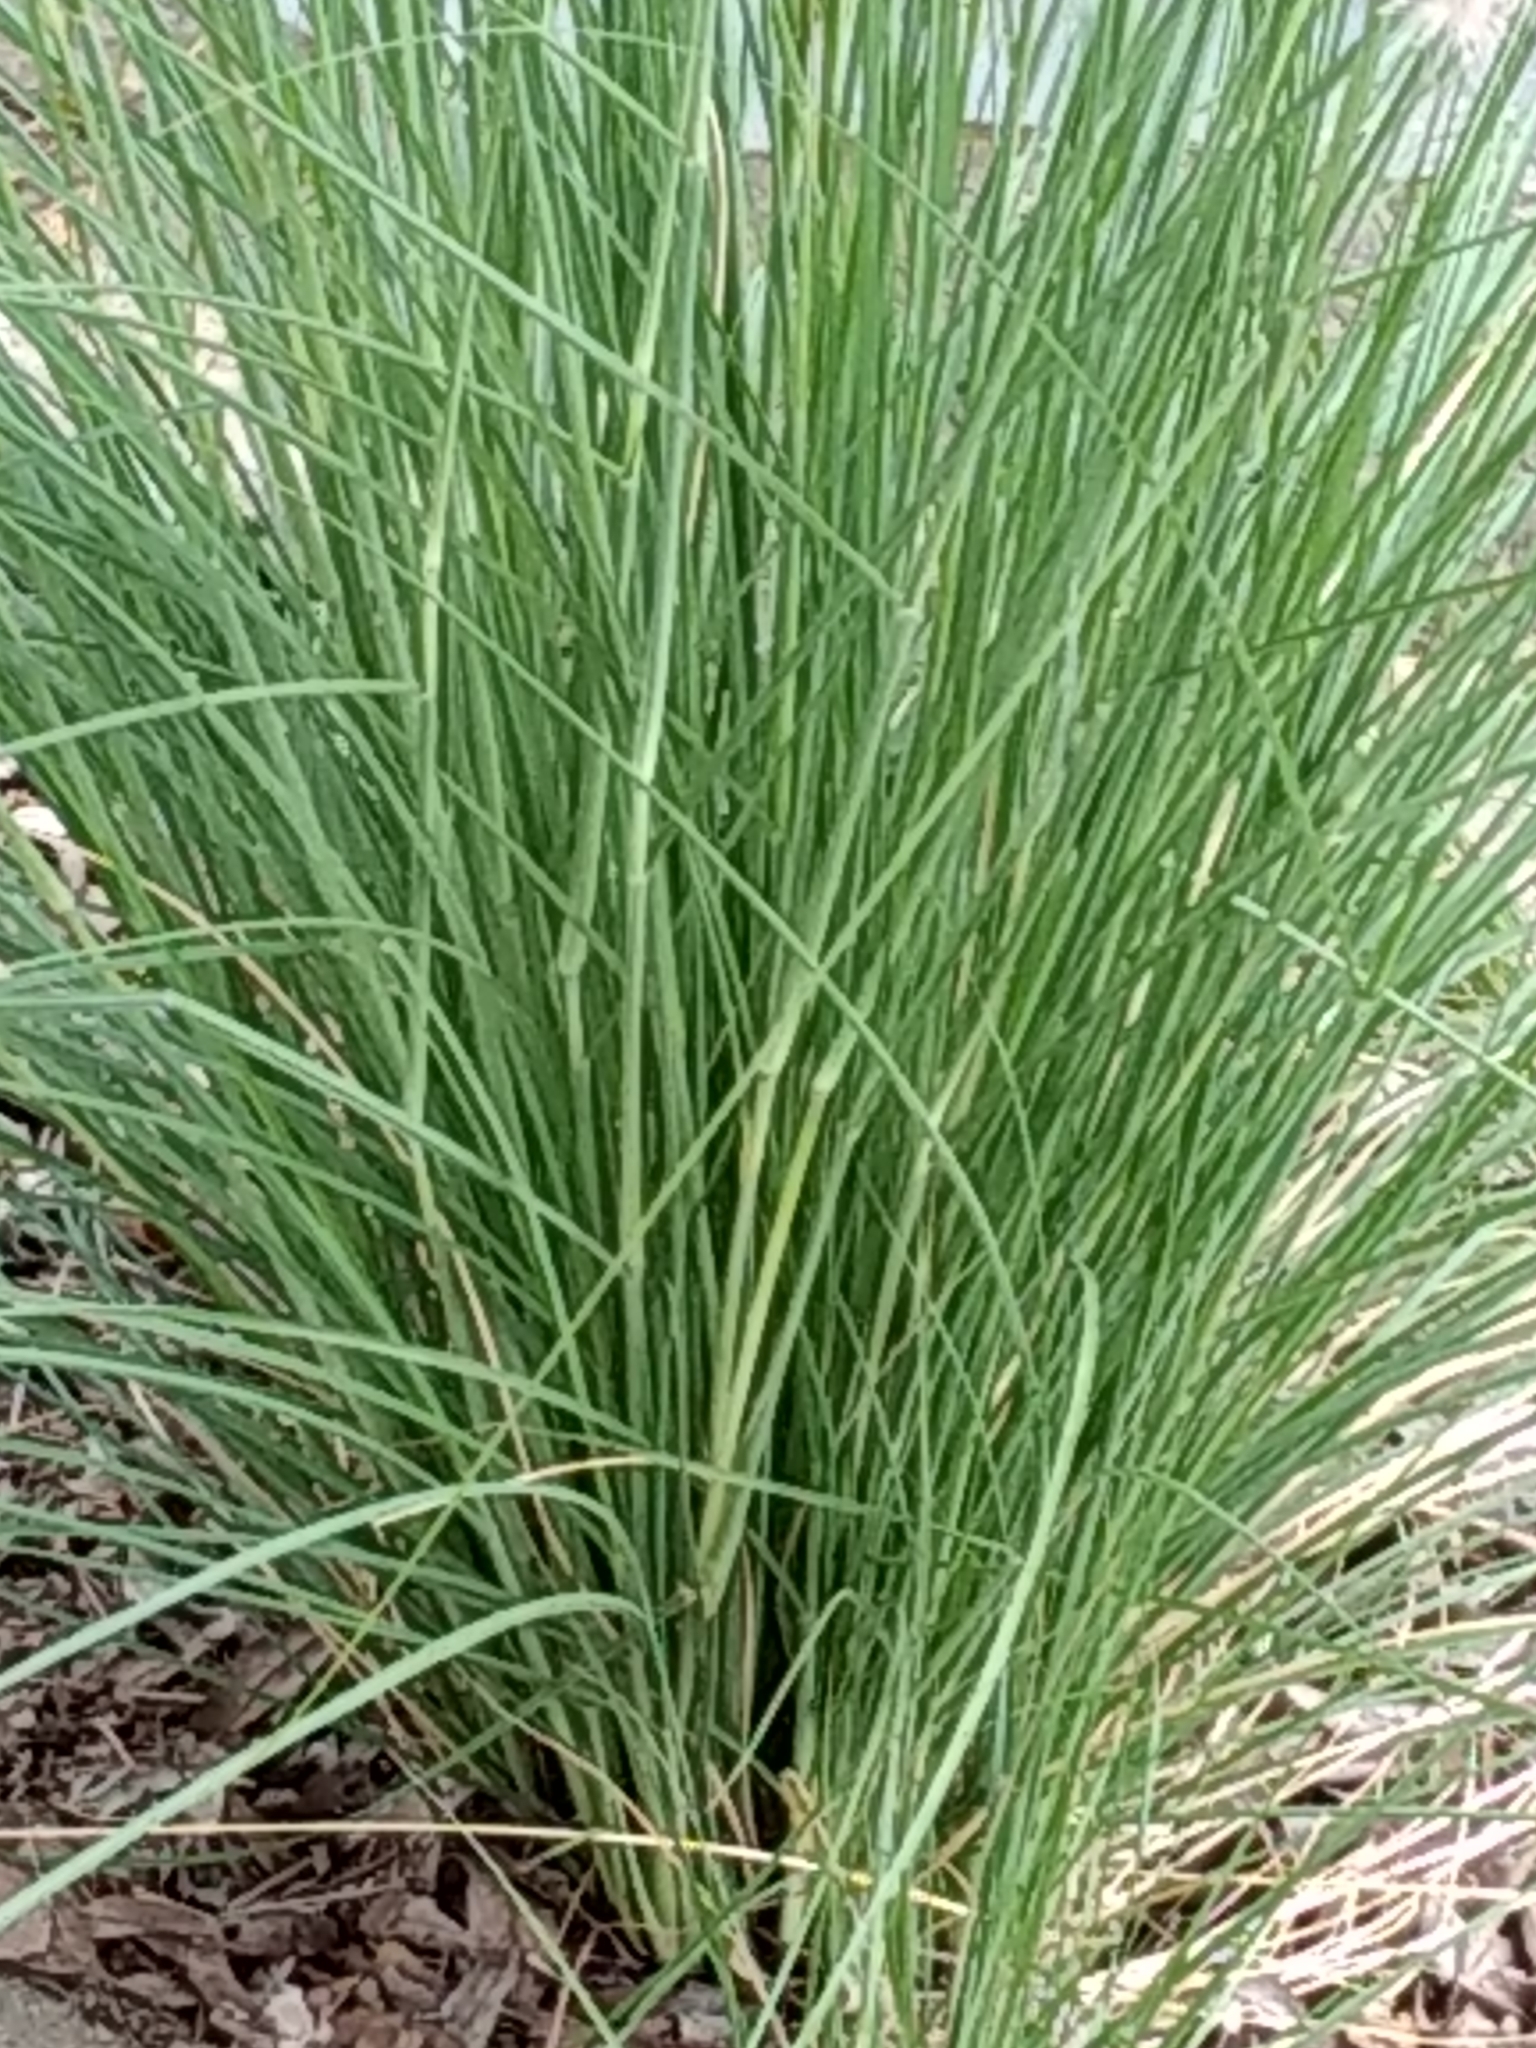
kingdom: Plantae
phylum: Tracheophyta
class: Liliopsida
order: Poales
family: Poaceae
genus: Cenchrus
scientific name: Cenchrus setaceus
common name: Crimson fountaingrass
